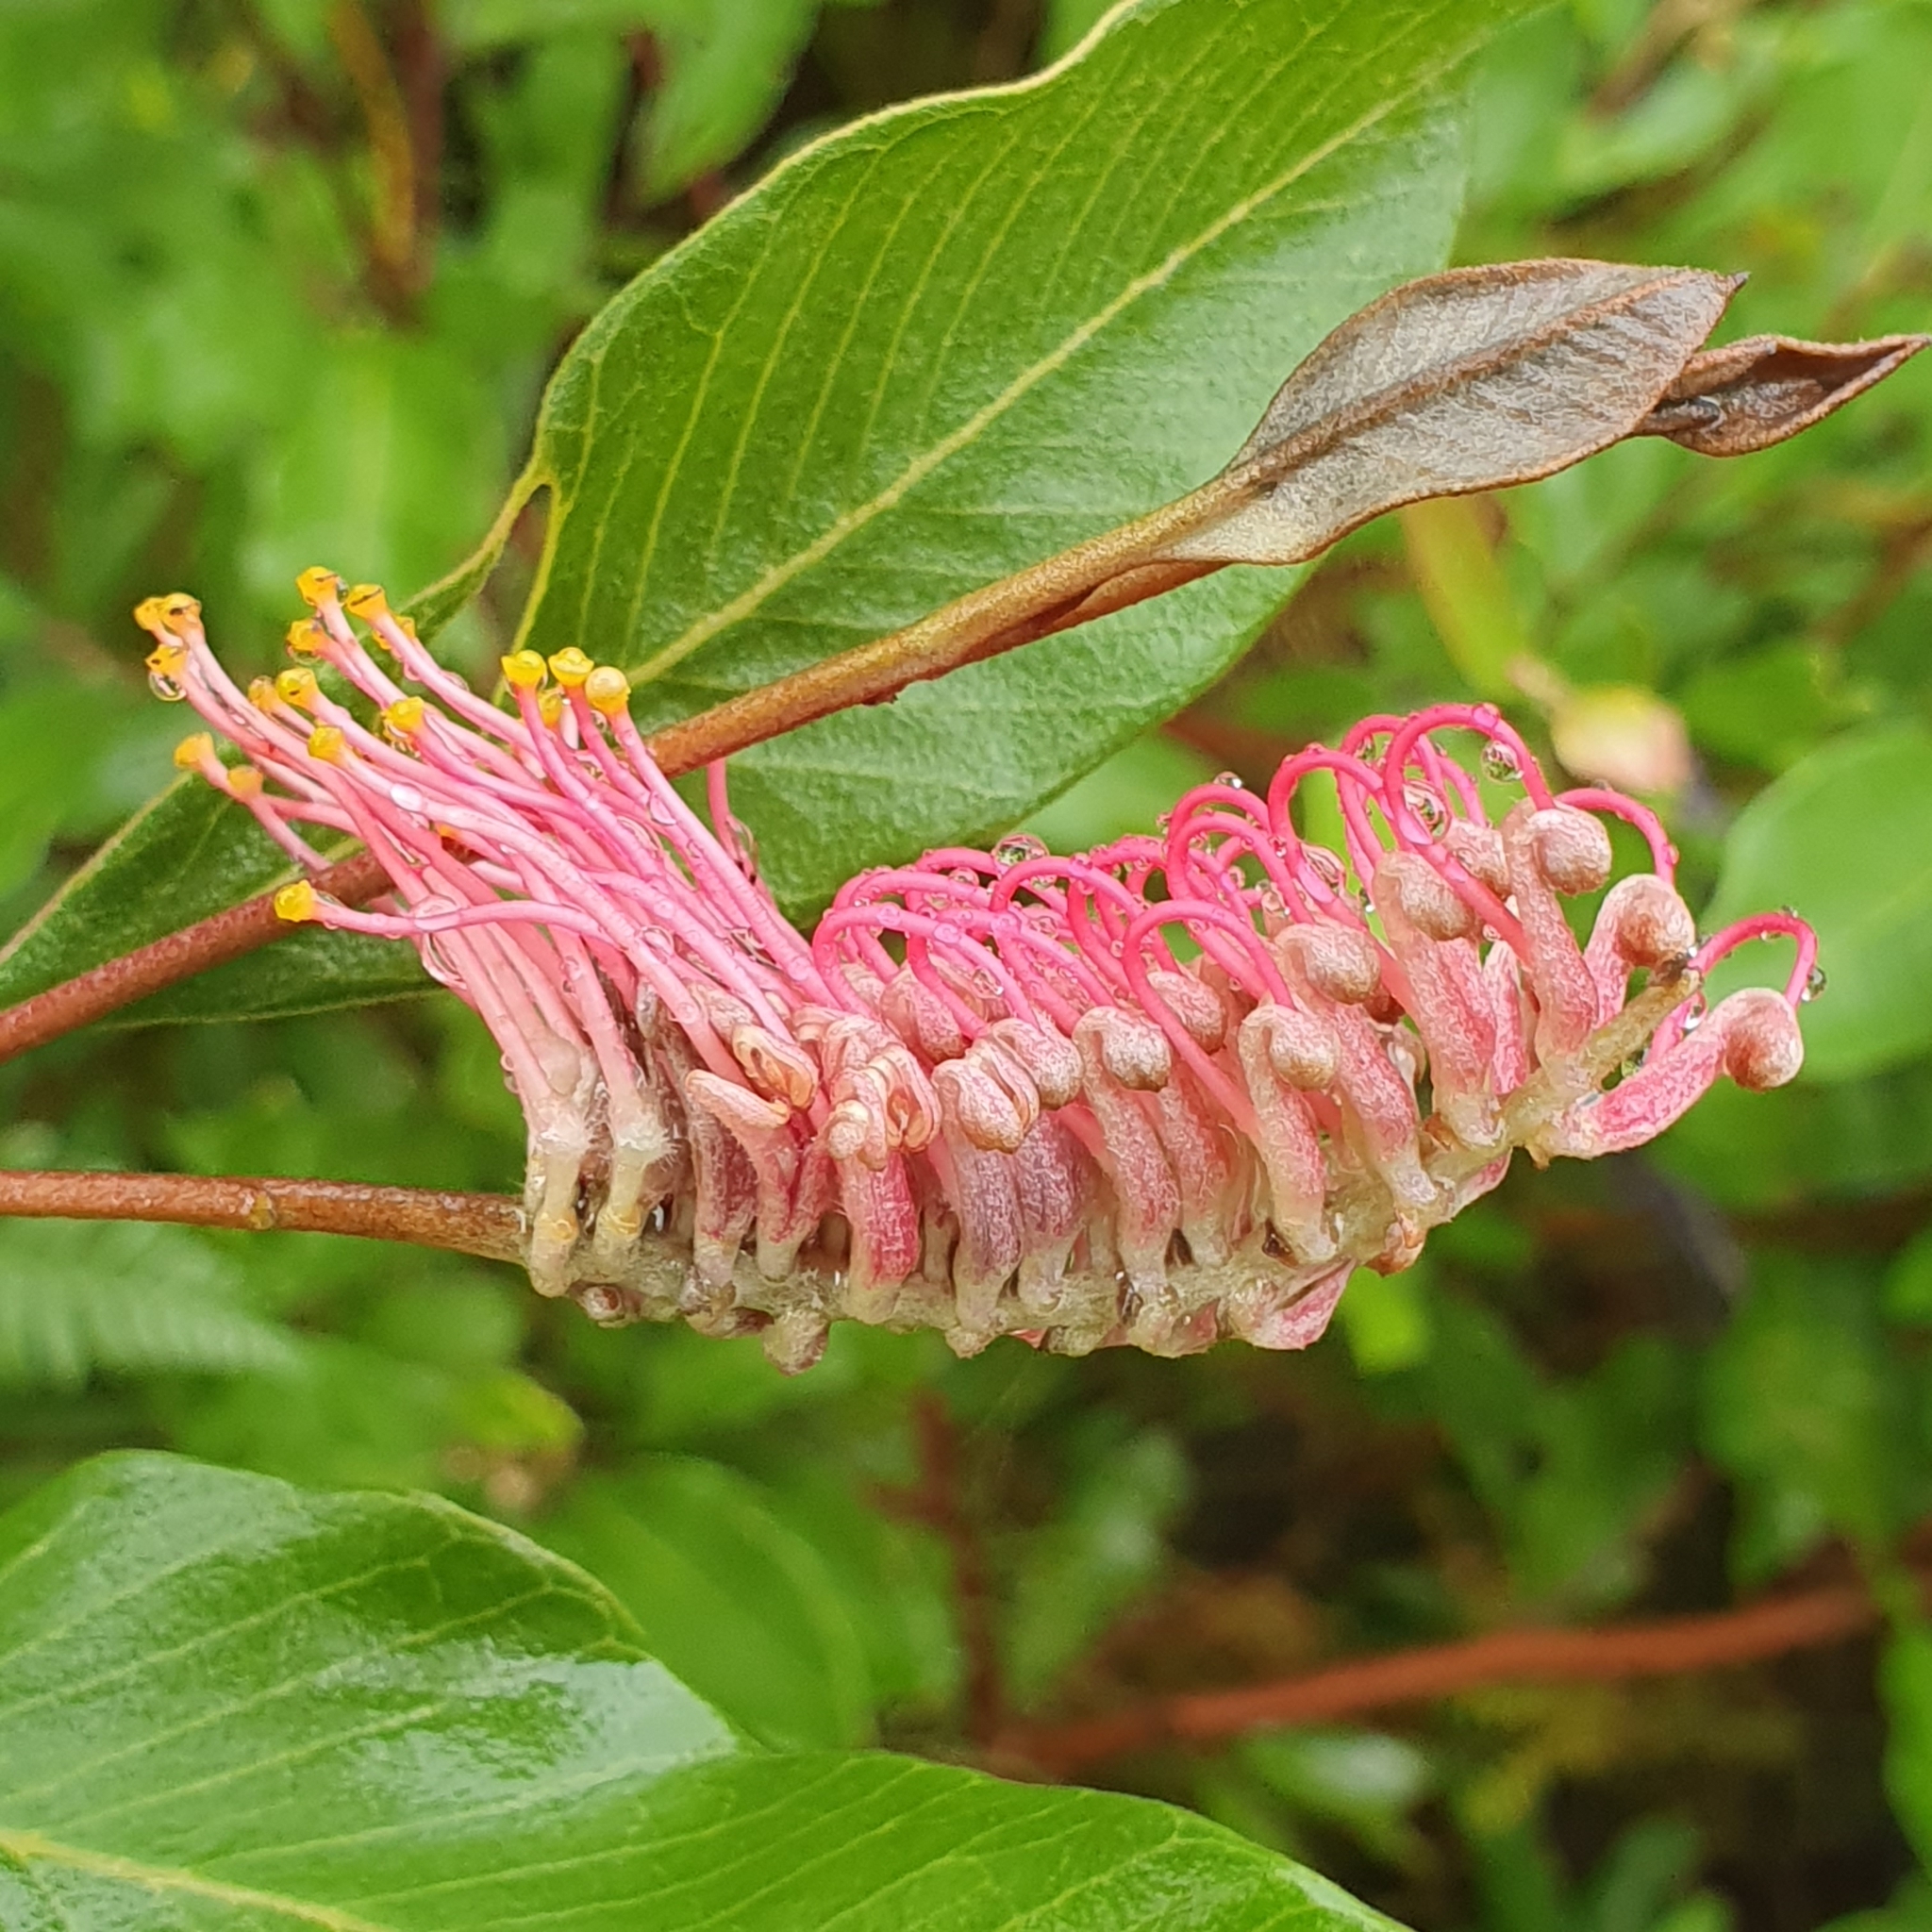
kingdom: Plantae
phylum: Tracheophyta
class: Magnoliopsida
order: Proteales
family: Proteaceae
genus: Grevillea
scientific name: Grevillea macleayana
